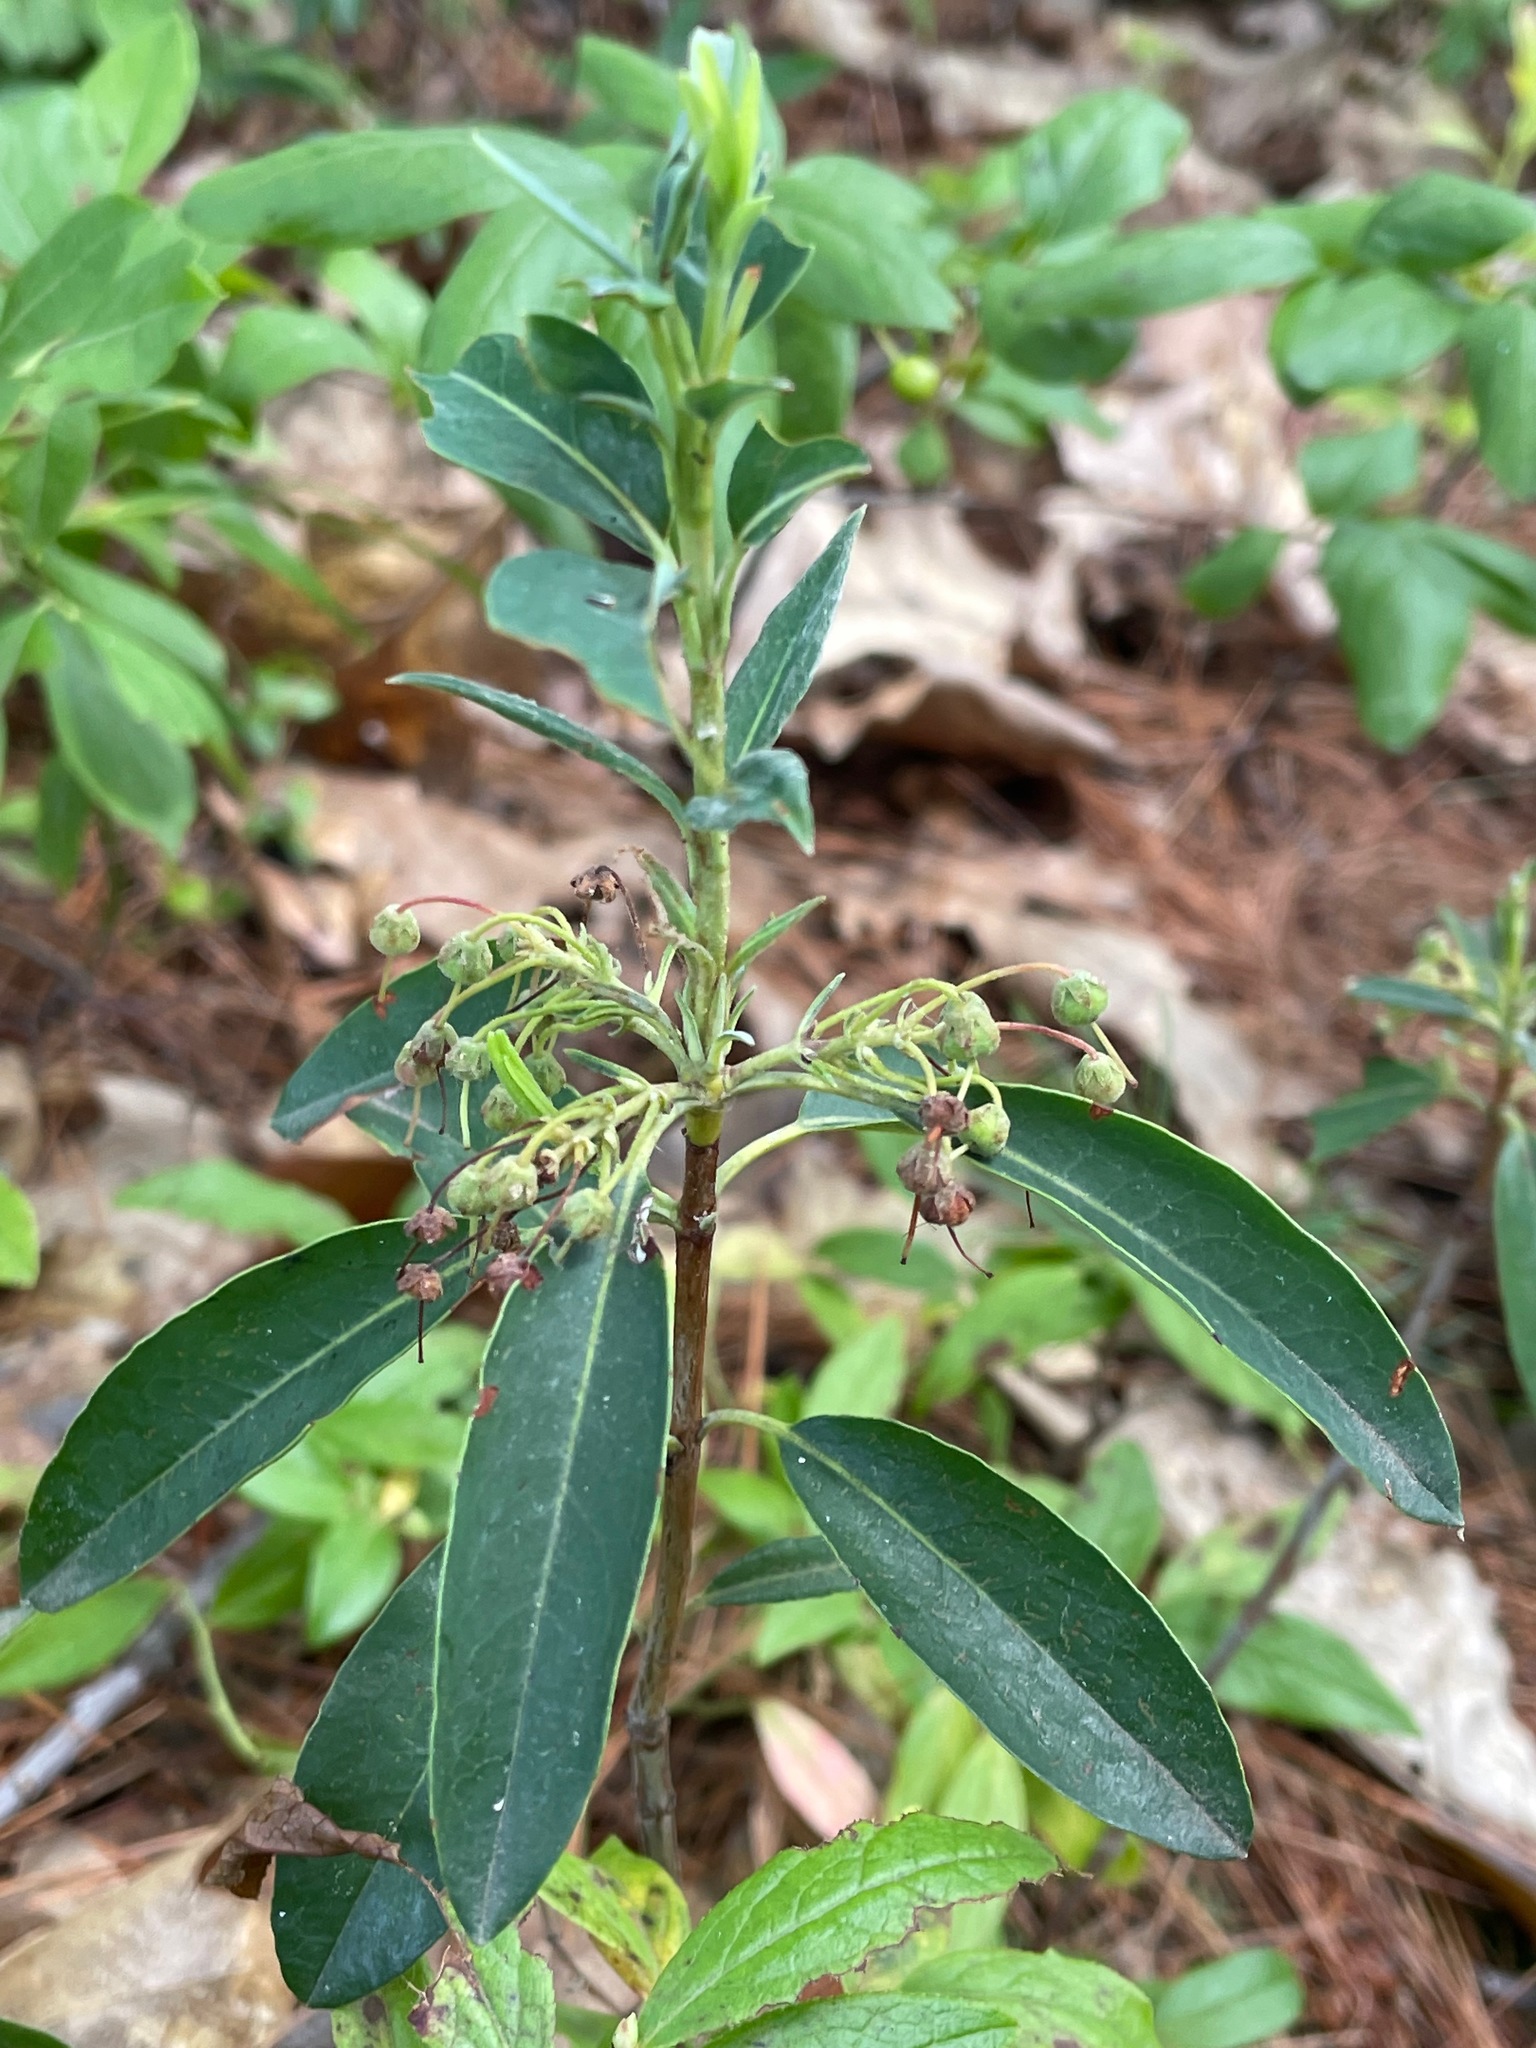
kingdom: Plantae
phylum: Tracheophyta
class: Magnoliopsida
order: Ericales
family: Ericaceae
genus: Kalmia
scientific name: Kalmia angustifolia
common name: Sheep-laurel
